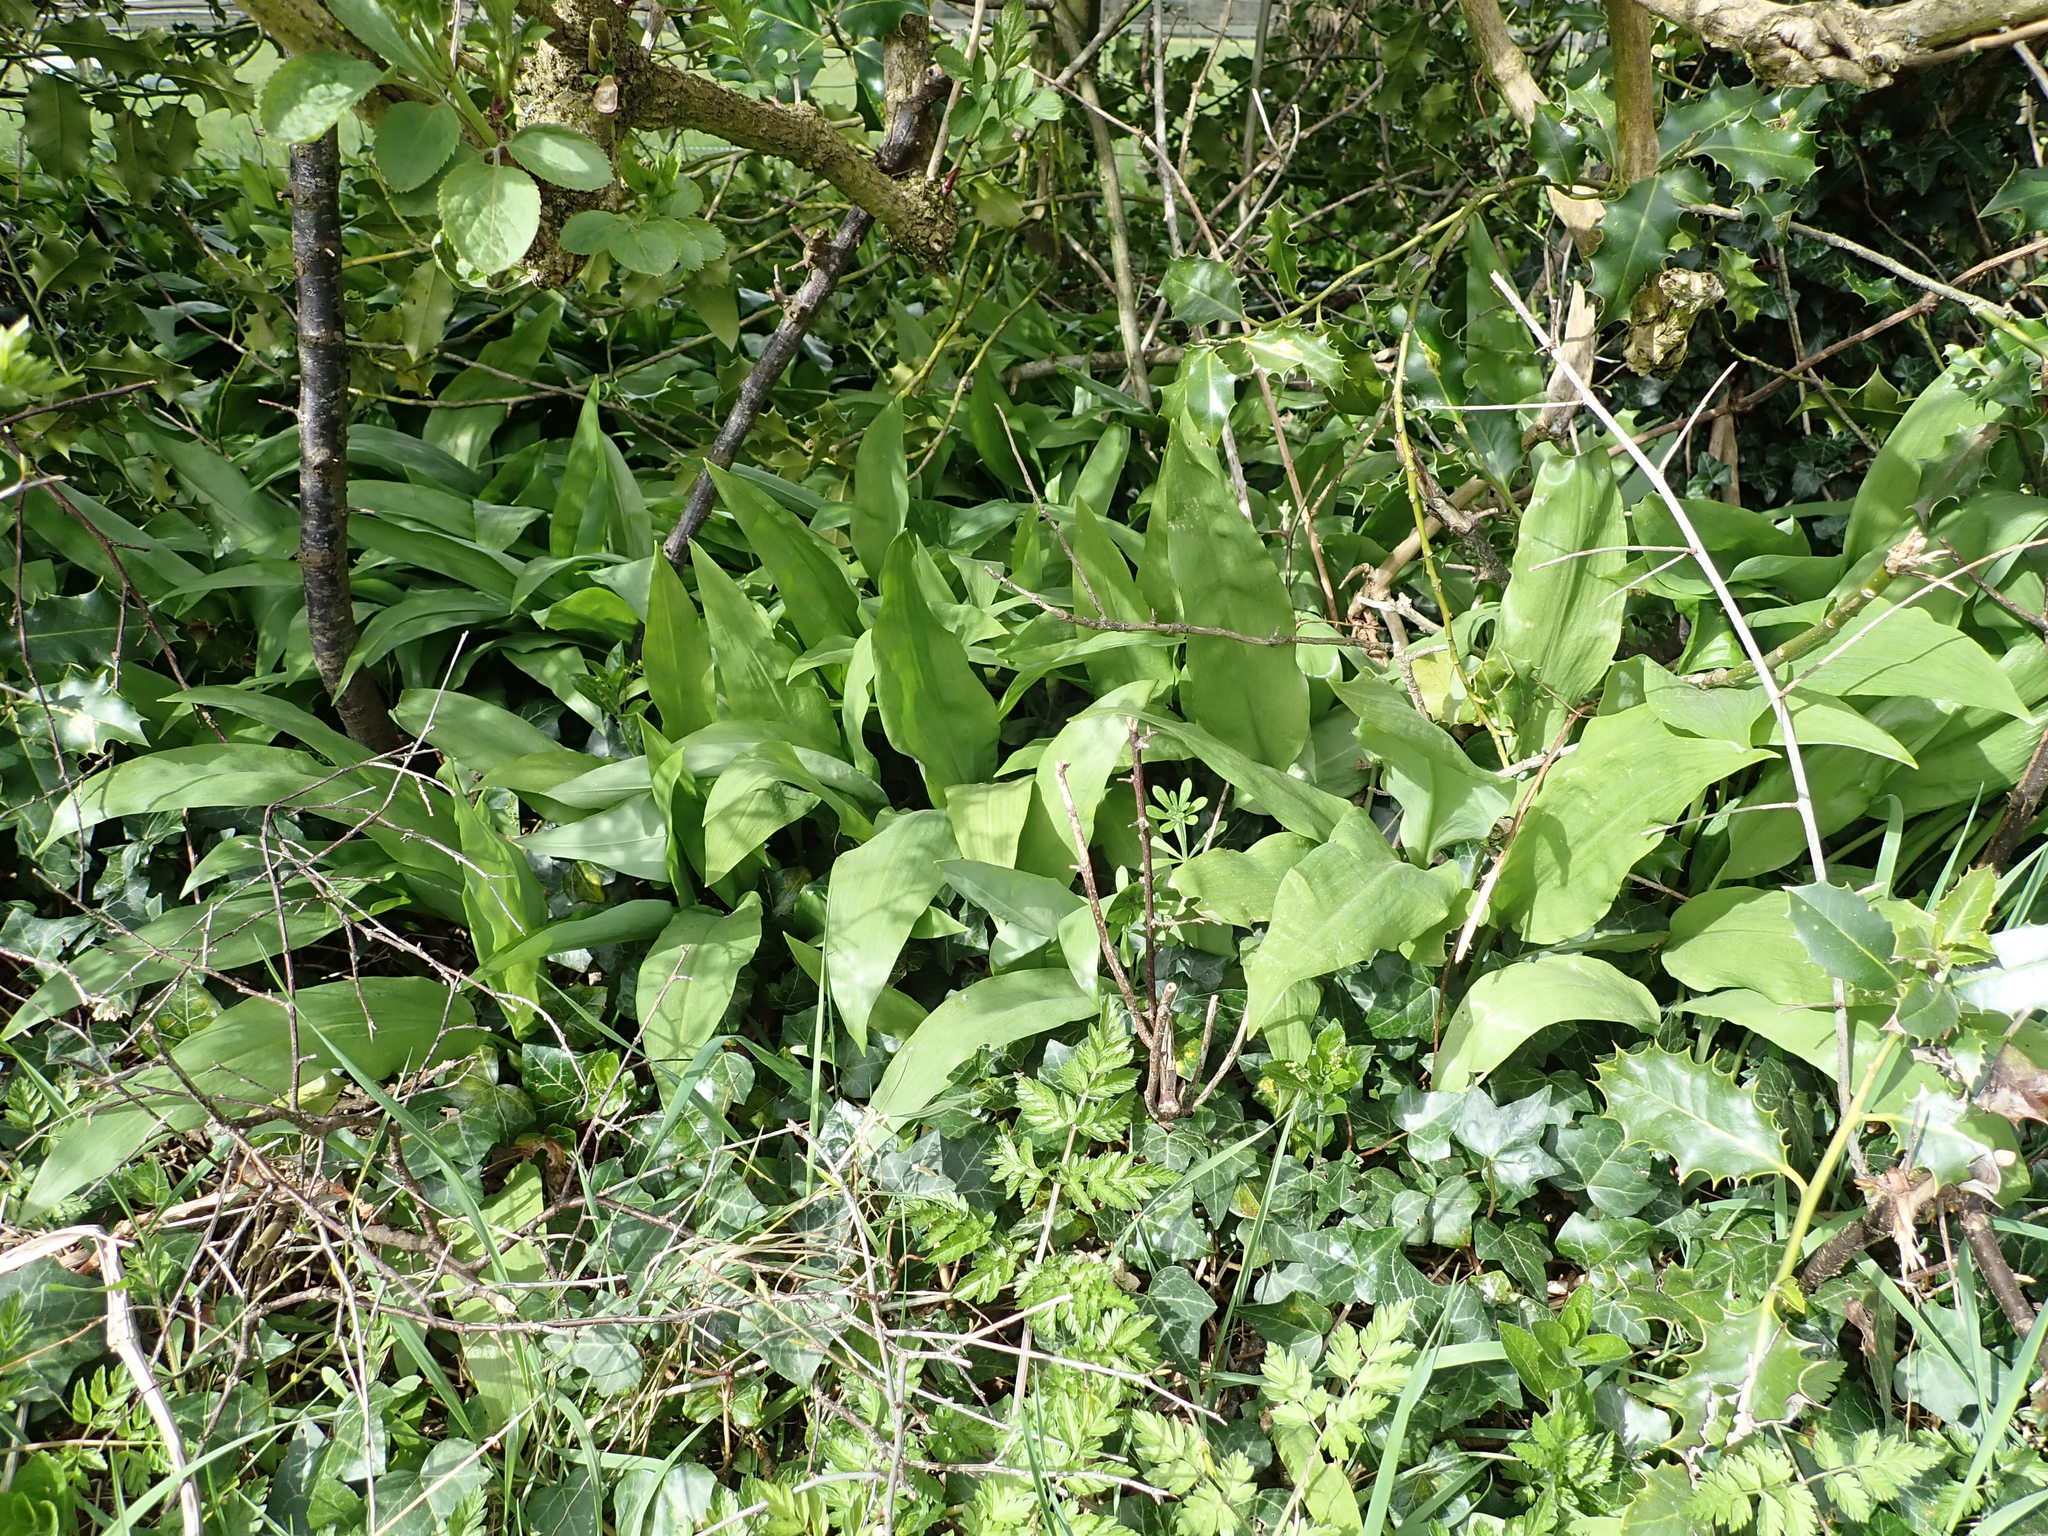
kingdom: Plantae
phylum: Tracheophyta
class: Liliopsida
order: Asparagales
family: Amaryllidaceae
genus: Allium
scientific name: Allium ursinum
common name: Ramsons
